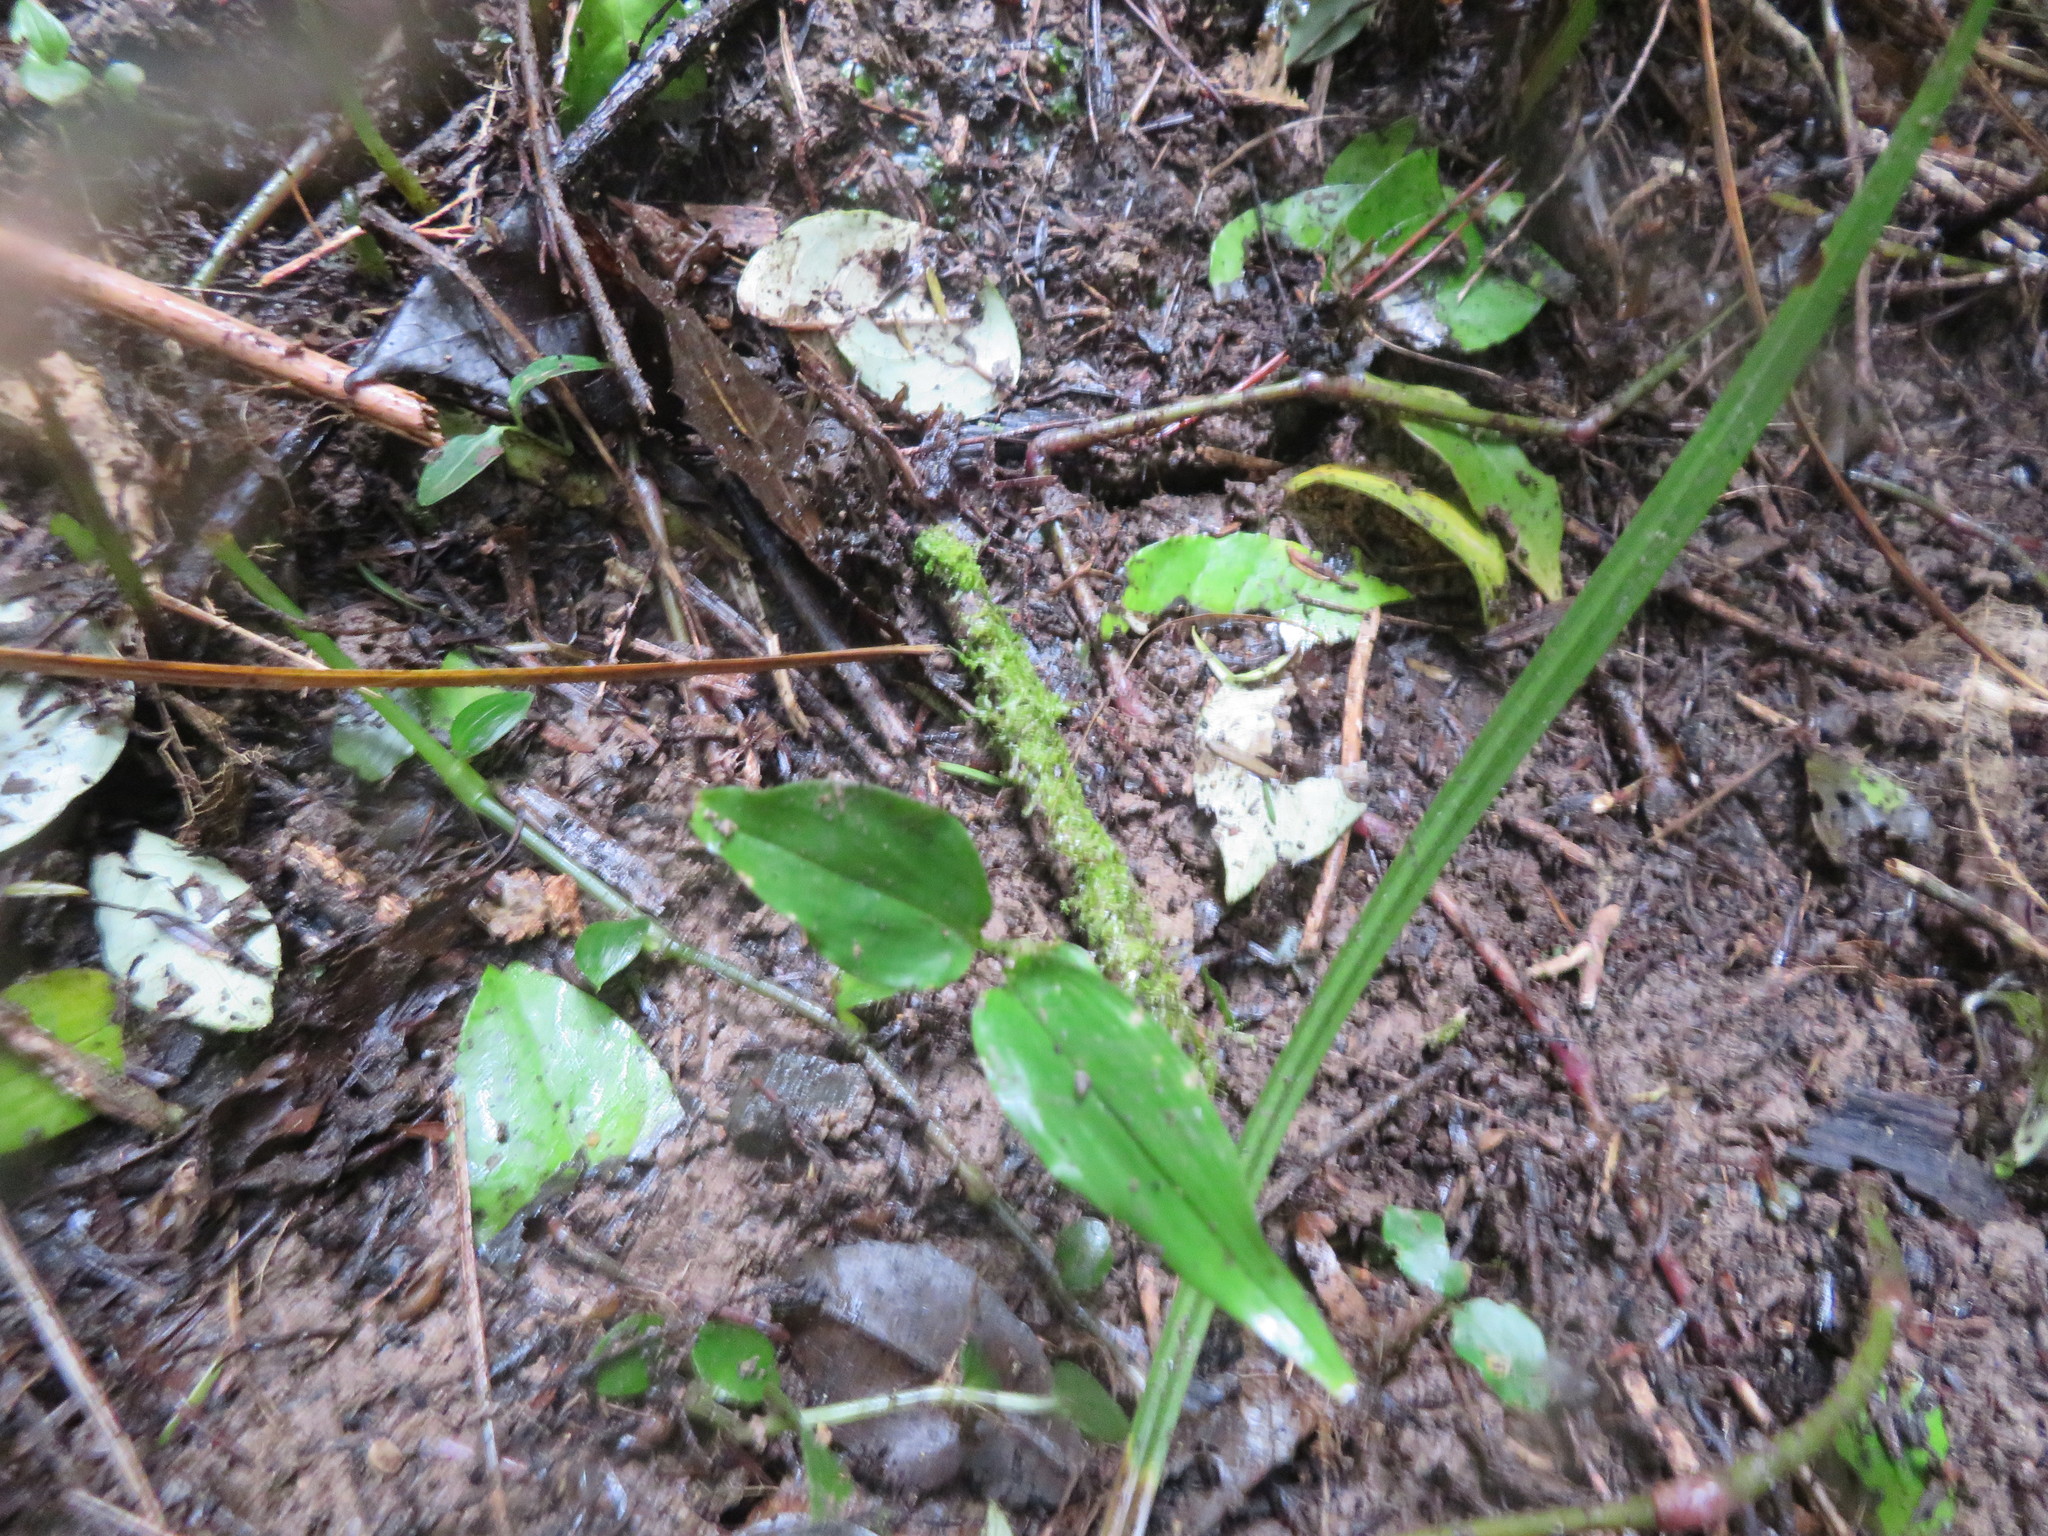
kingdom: Plantae
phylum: Tracheophyta
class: Liliopsida
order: Zingiberales
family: Zingiberaceae
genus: Hedychium
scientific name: Hedychium gardnerianum
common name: Himalayan ginger
